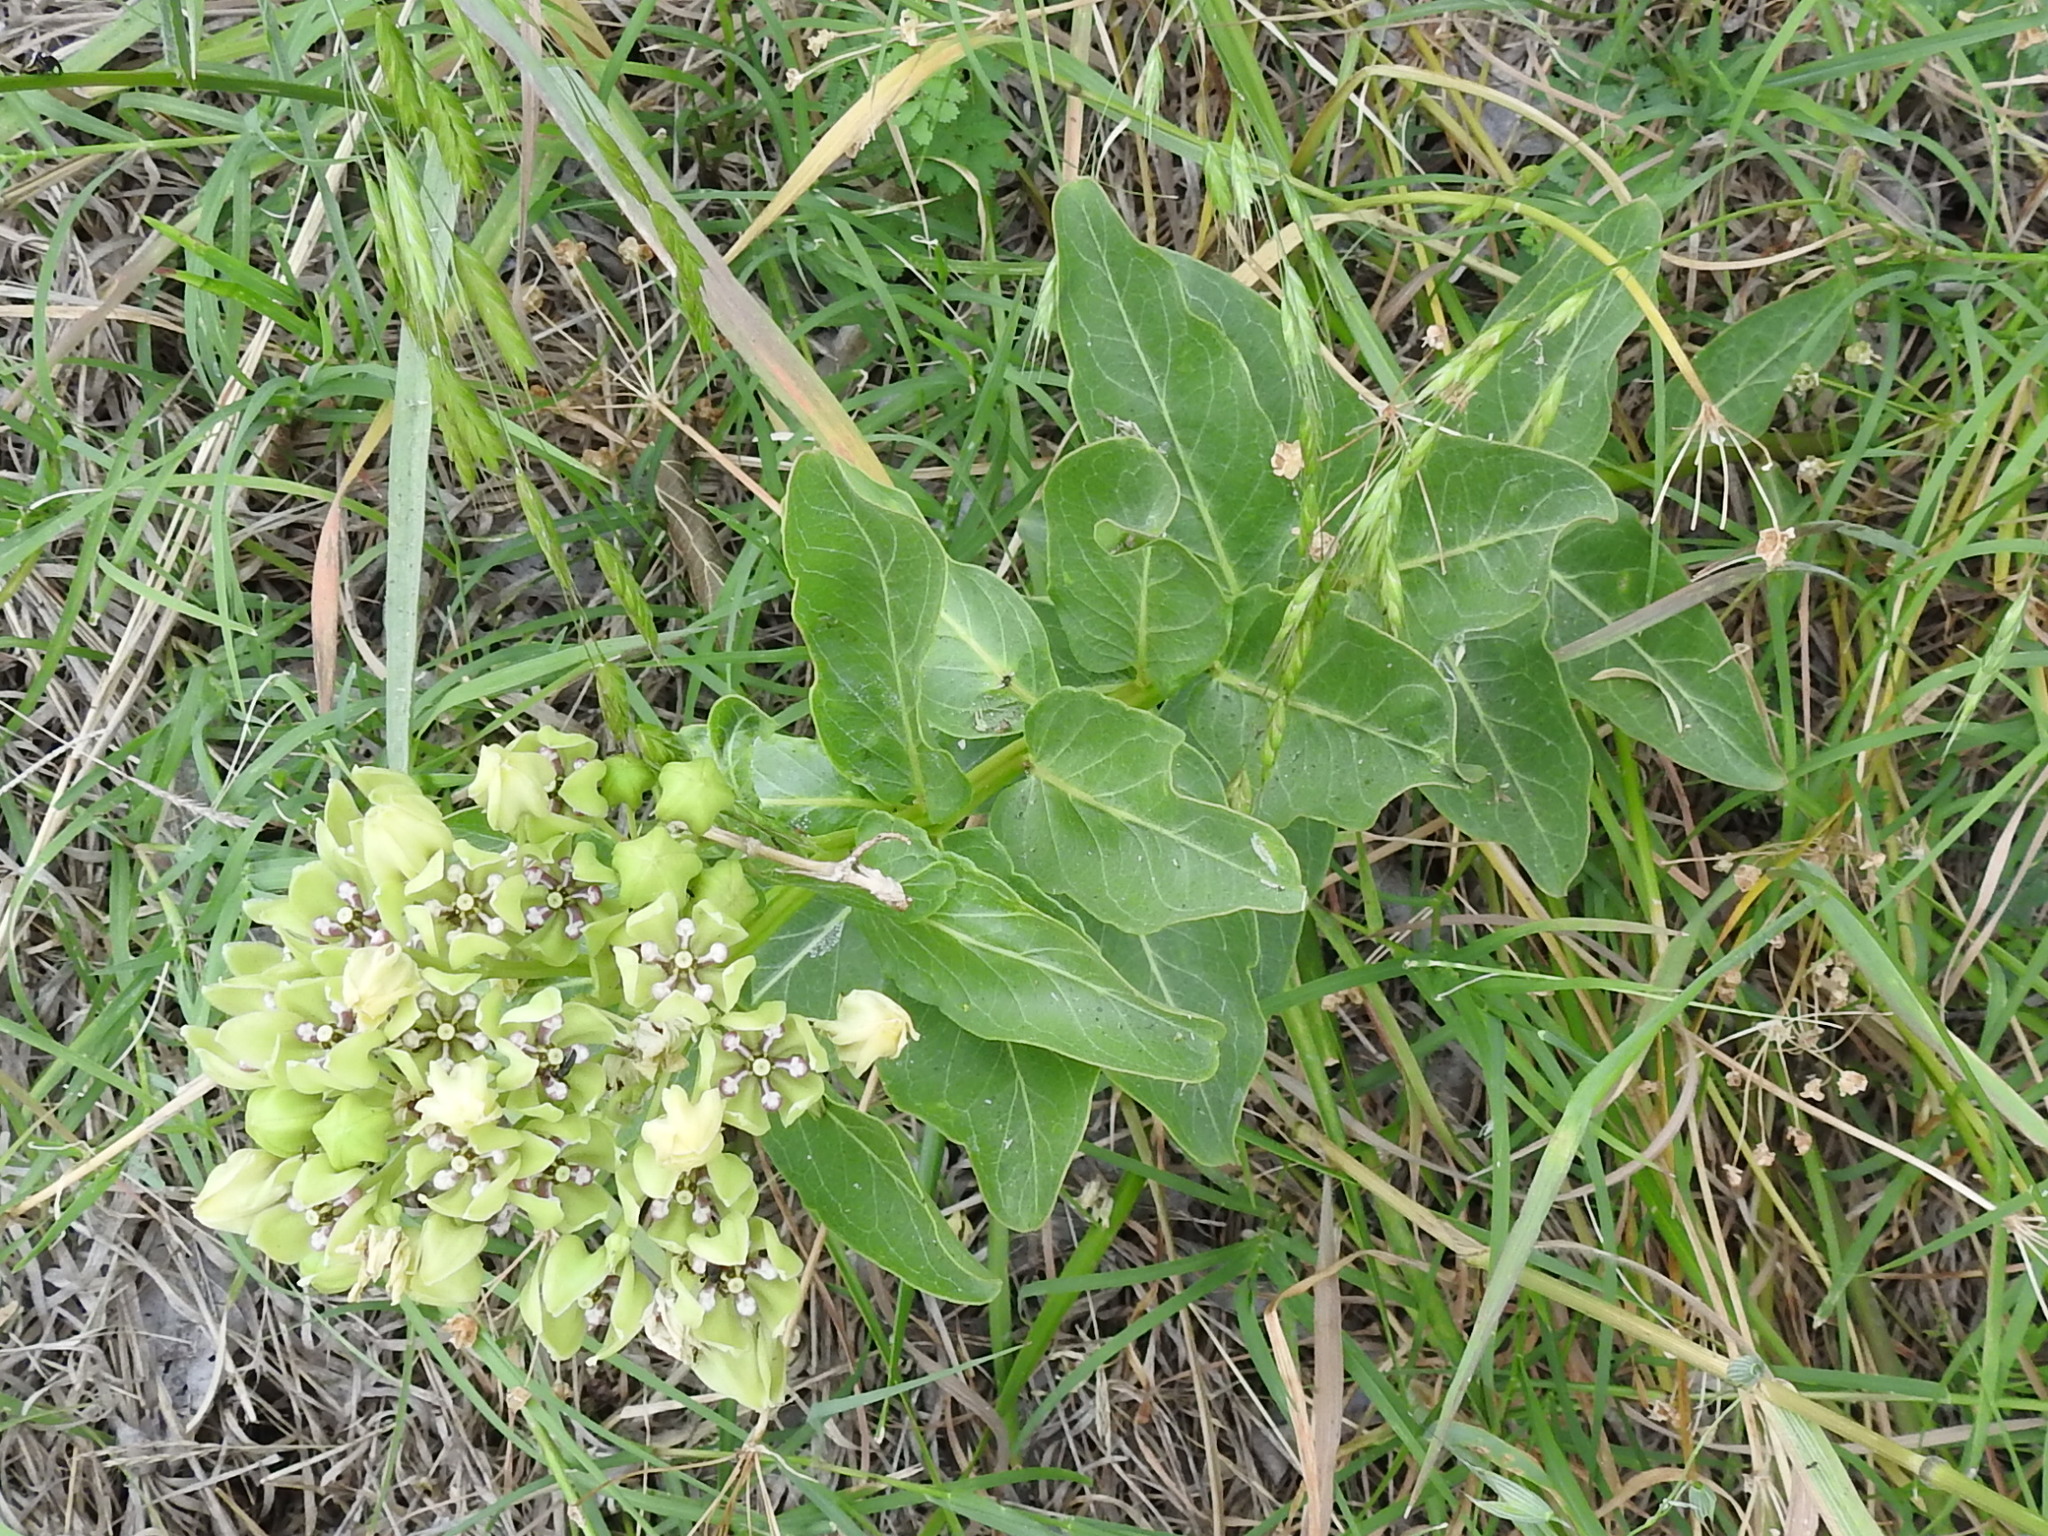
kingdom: Plantae
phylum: Tracheophyta
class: Magnoliopsida
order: Gentianales
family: Apocynaceae
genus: Asclepias
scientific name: Asclepias viridis
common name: Antelope-horns
